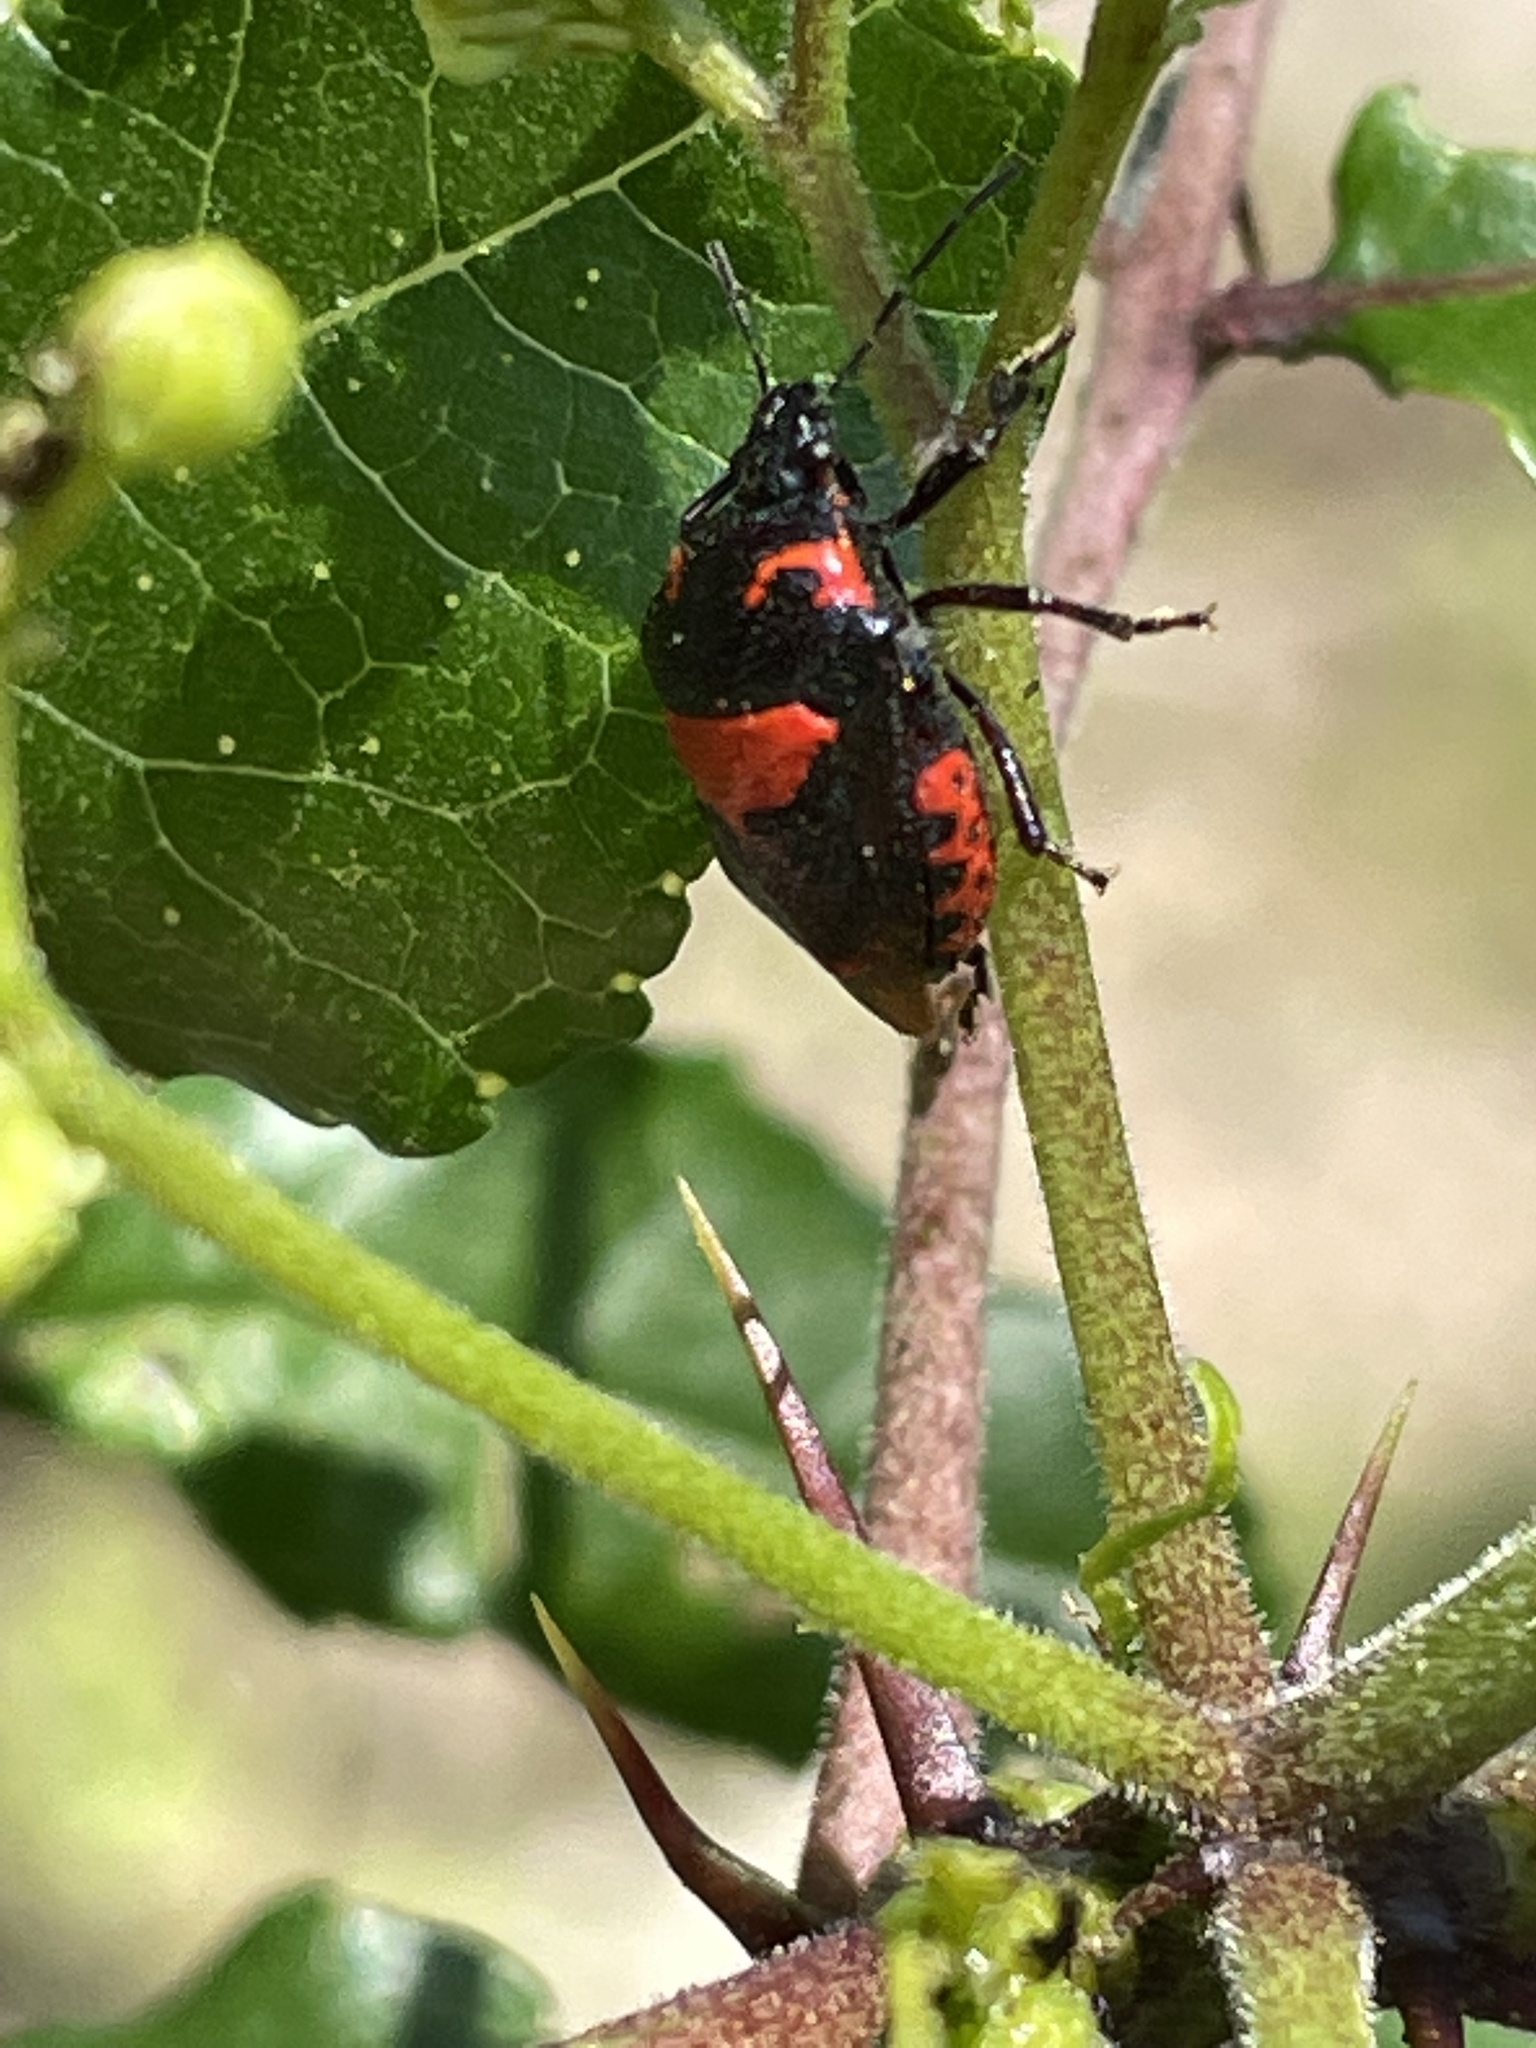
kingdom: Animalia
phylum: Arthropoda
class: Insecta
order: Hemiptera
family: Pentatomidae
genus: Stiretrus
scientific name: Stiretrus anchorago
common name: Anchor stink bug
